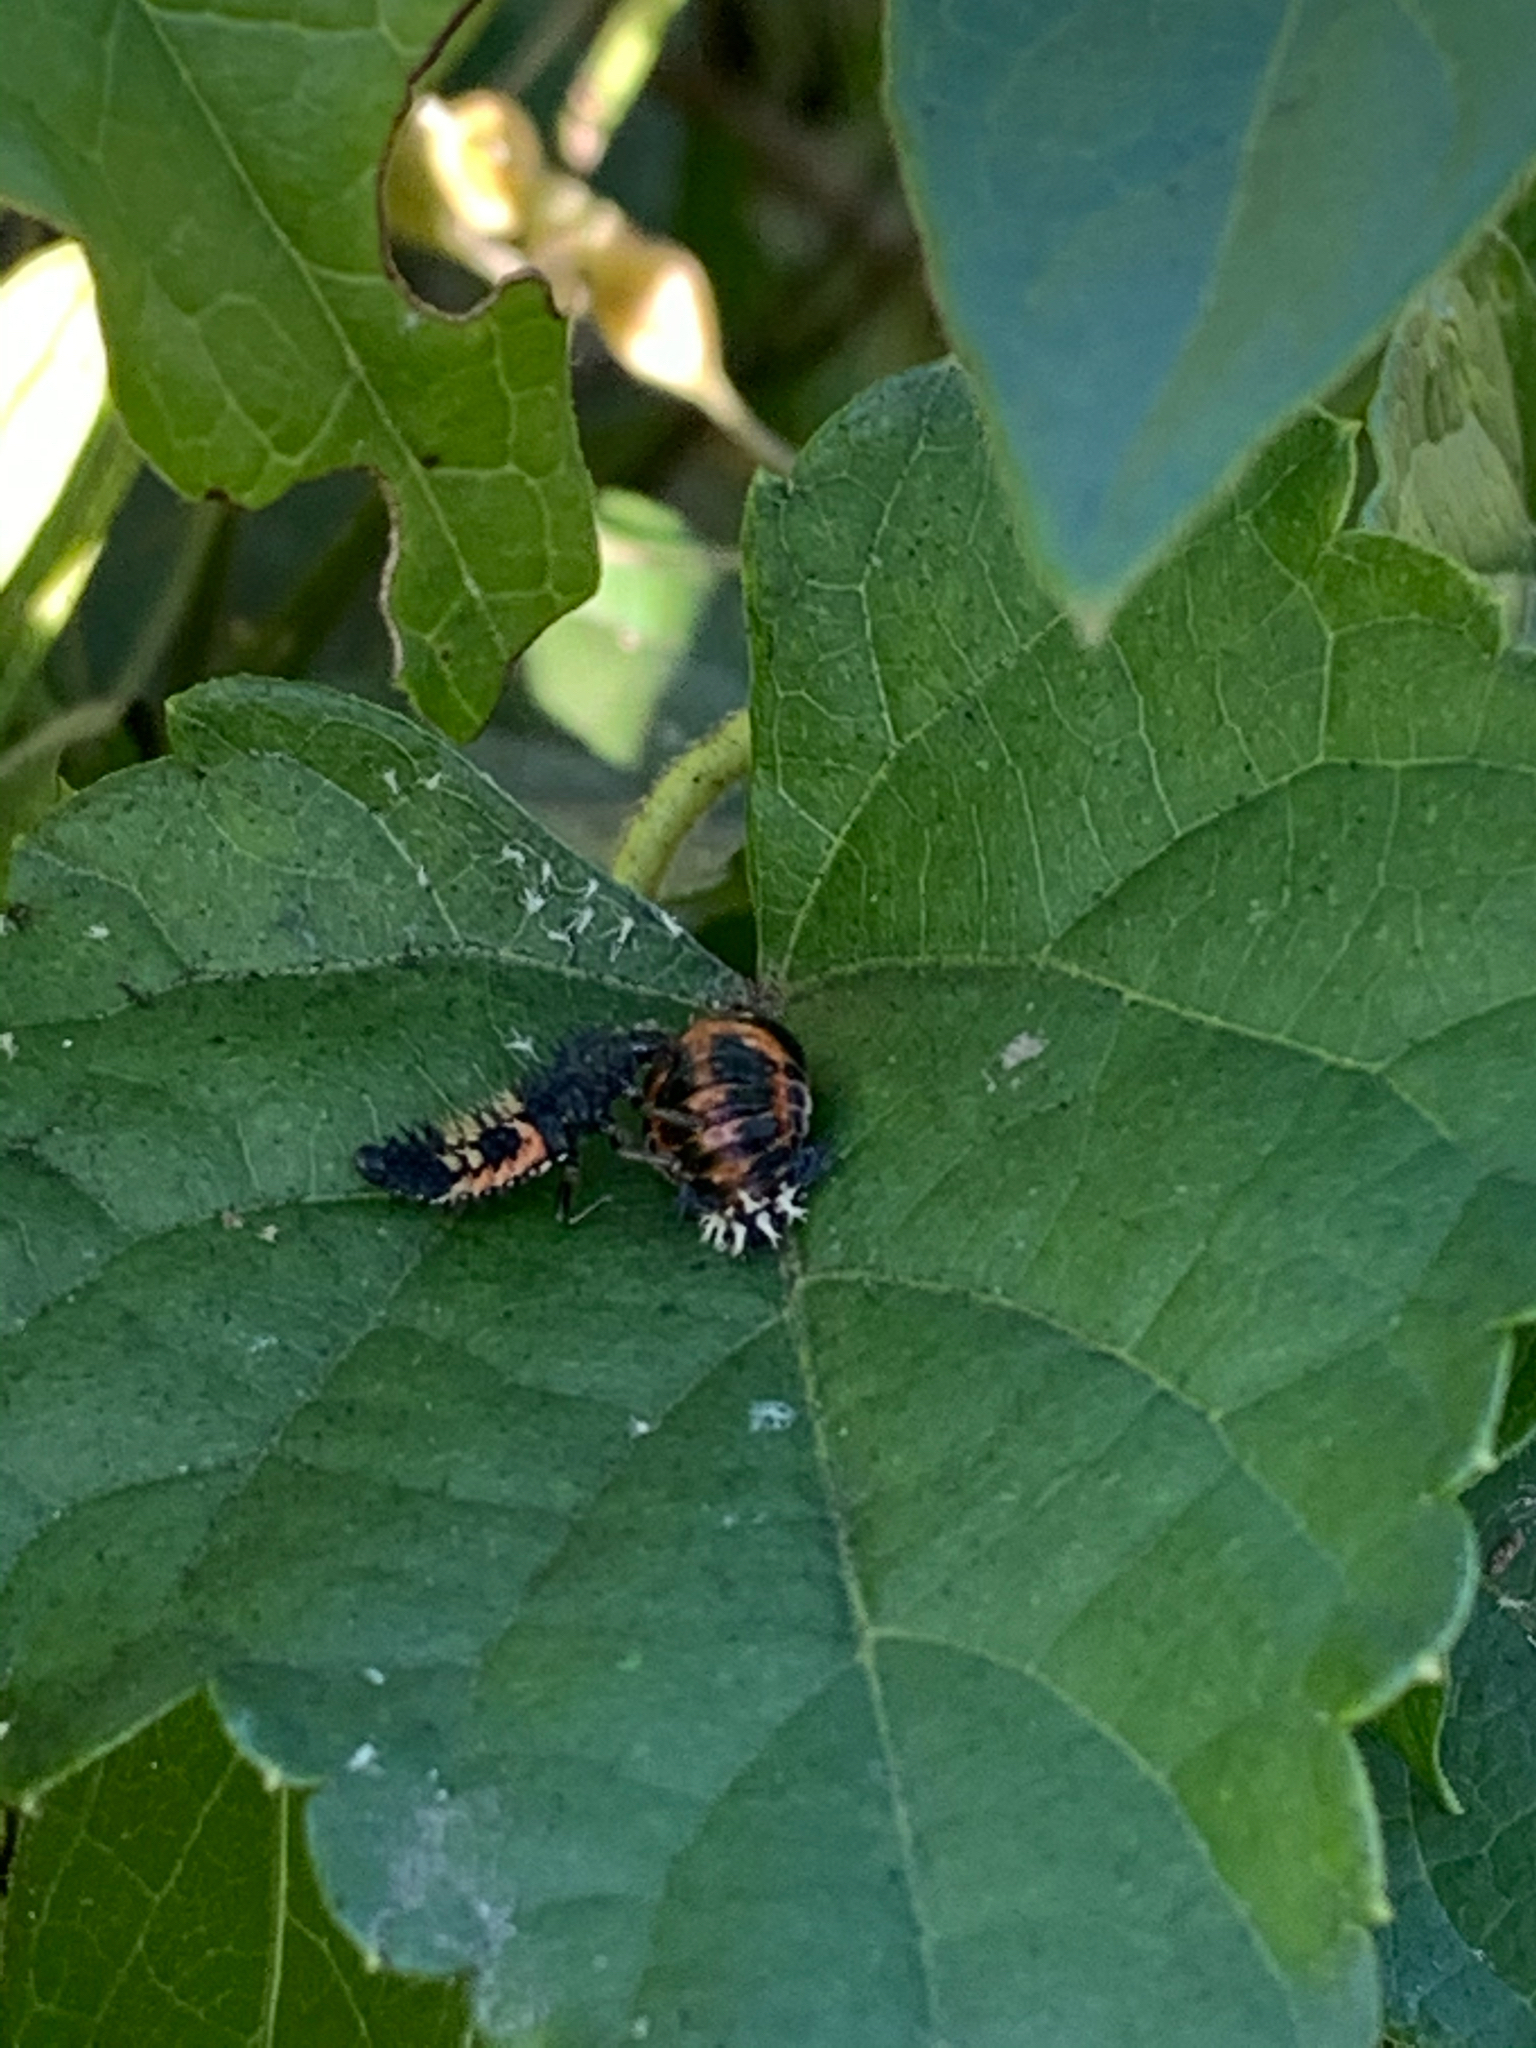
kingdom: Animalia
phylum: Arthropoda
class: Insecta
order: Coleoptera
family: Coccinellidae
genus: Harmonia
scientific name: Harmonia axyridis
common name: Harlequin ladybird
